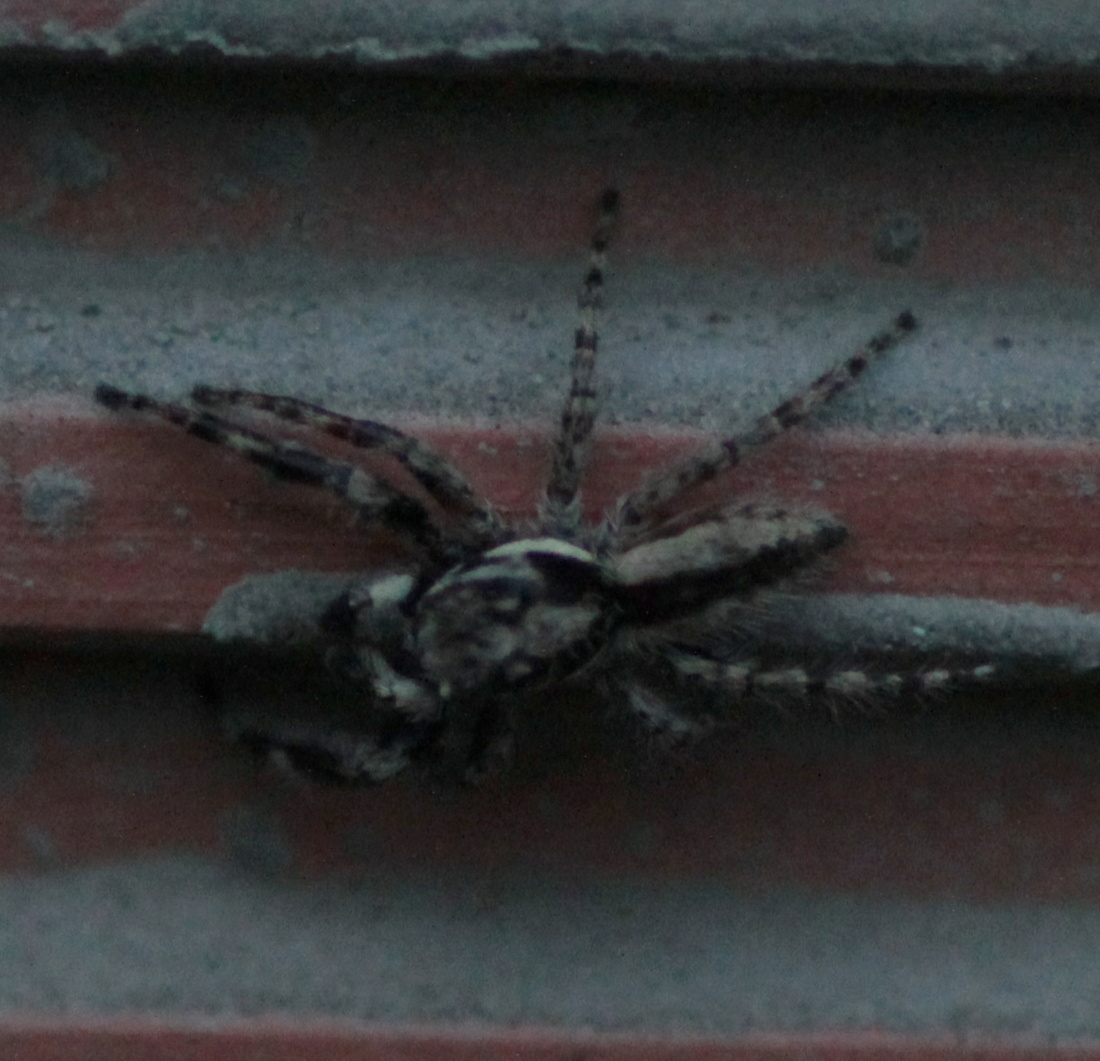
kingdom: Animalia
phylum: Arthropoda
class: Arachnida
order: Araneae
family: Salticidae
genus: Menemerus
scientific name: Menemerus bivittatus
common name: Gray wall jumper
